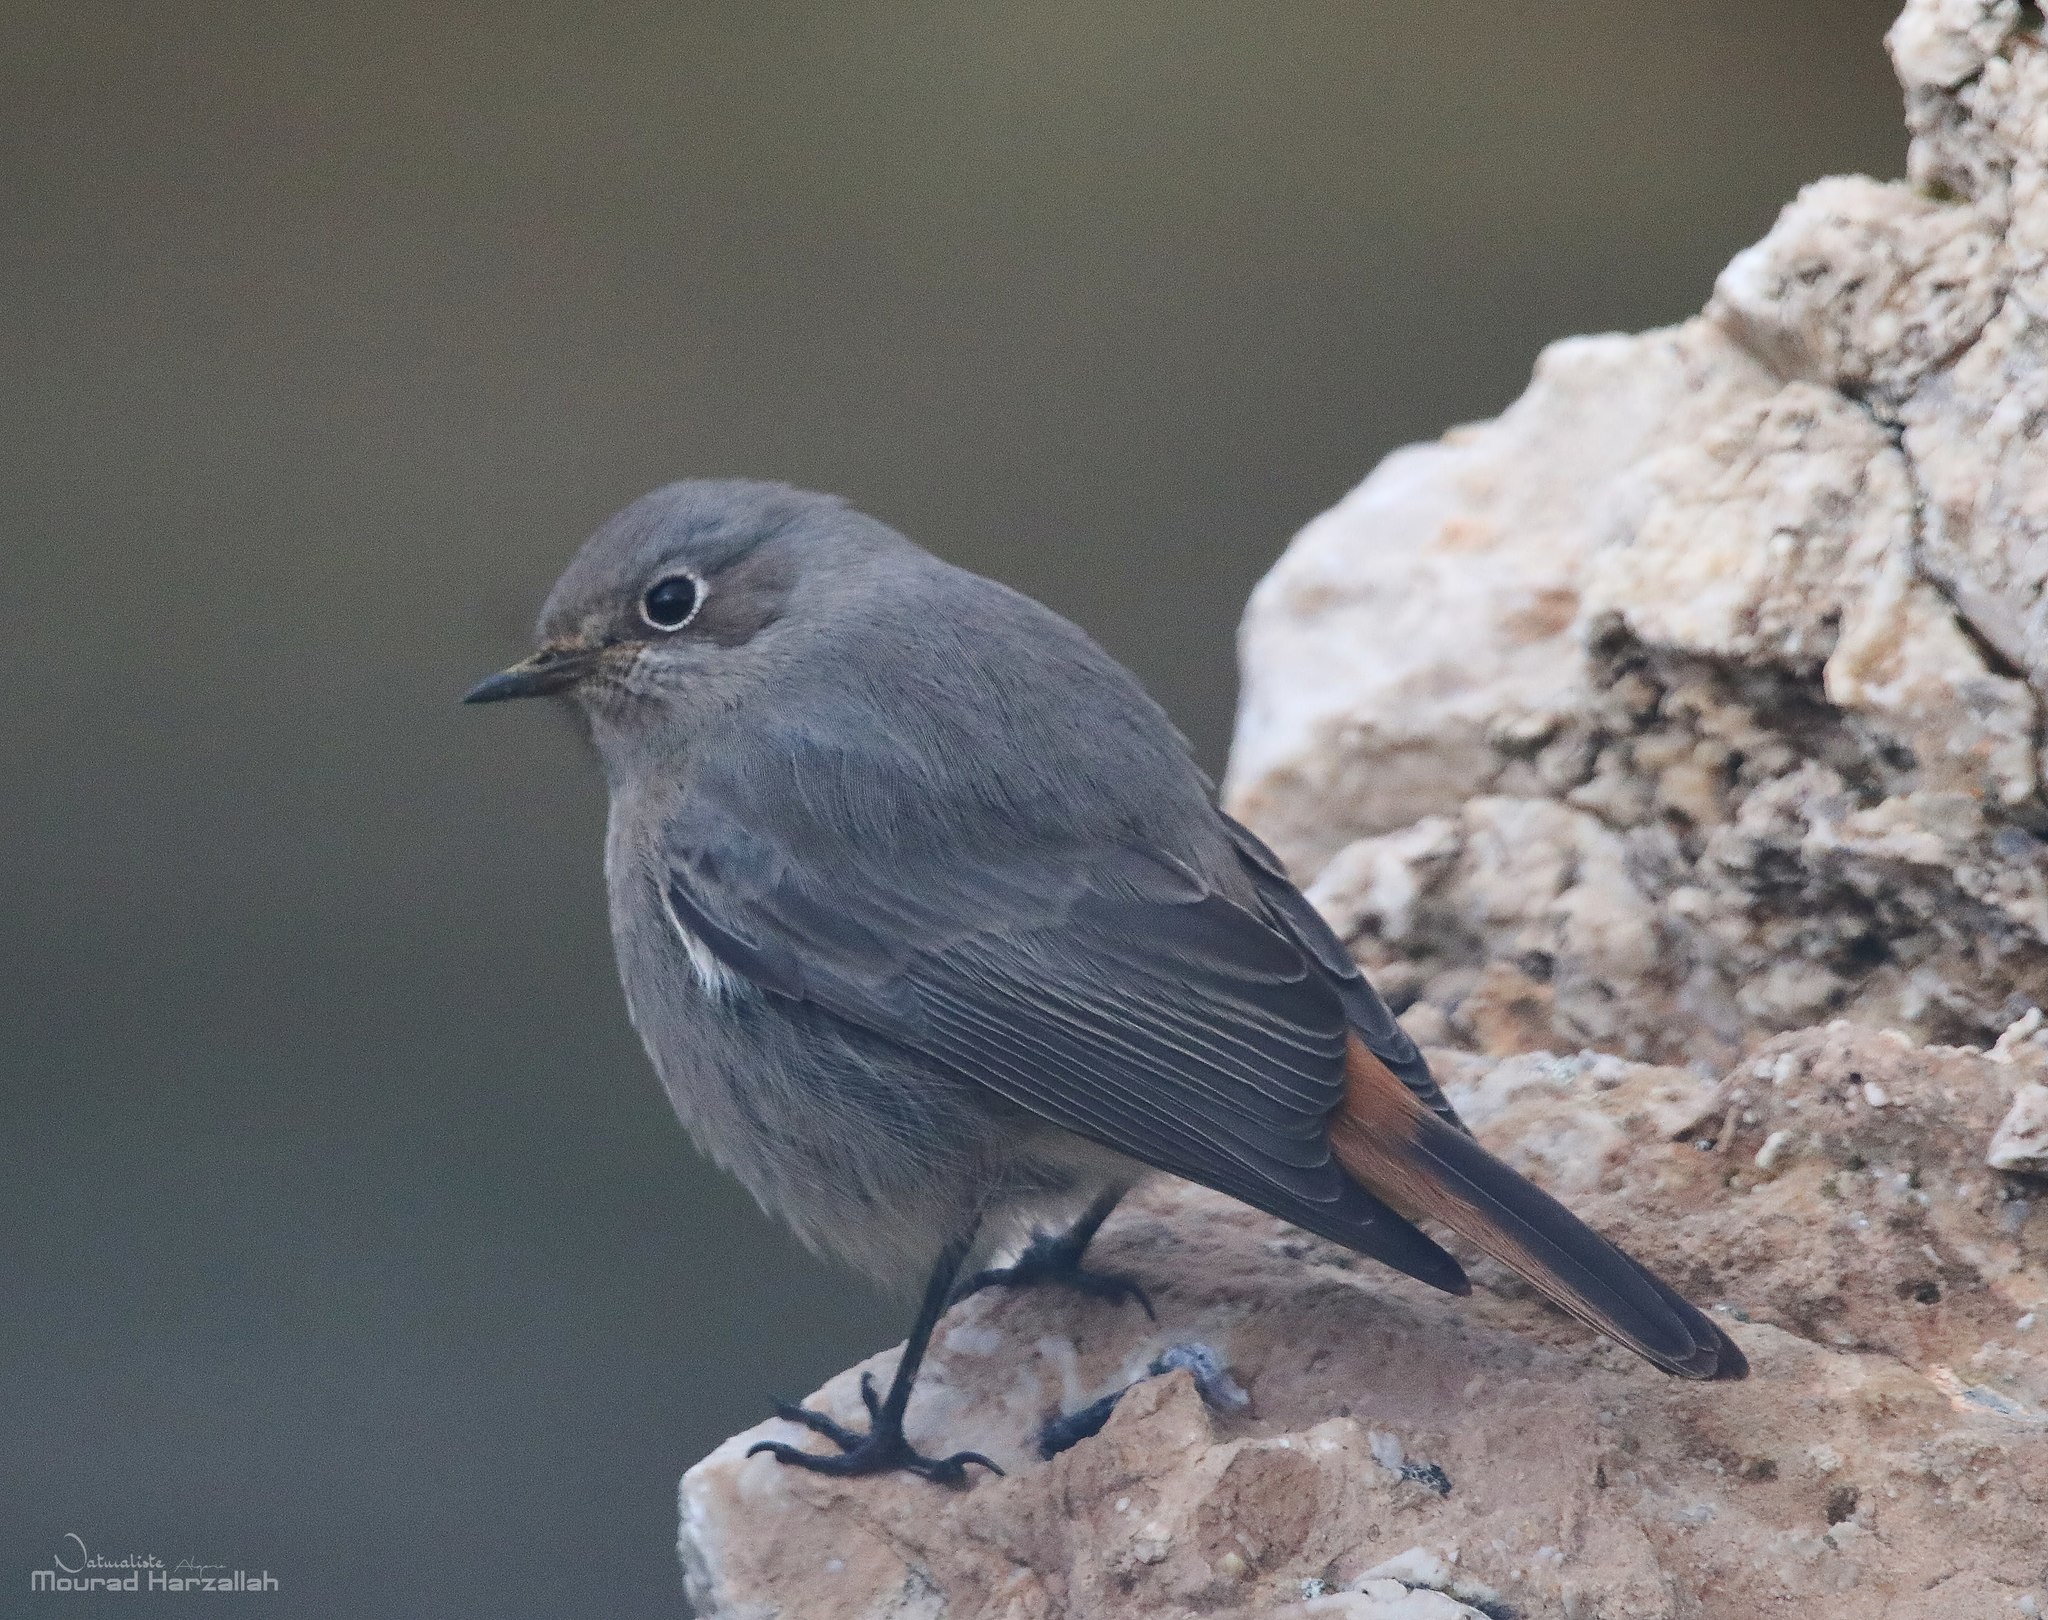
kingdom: Animalia
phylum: Chordata
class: Aves
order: Passeriformes
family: Muscicapidae
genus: Phoenicurus
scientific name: Phoenicurus ochruros
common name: Black redstart
